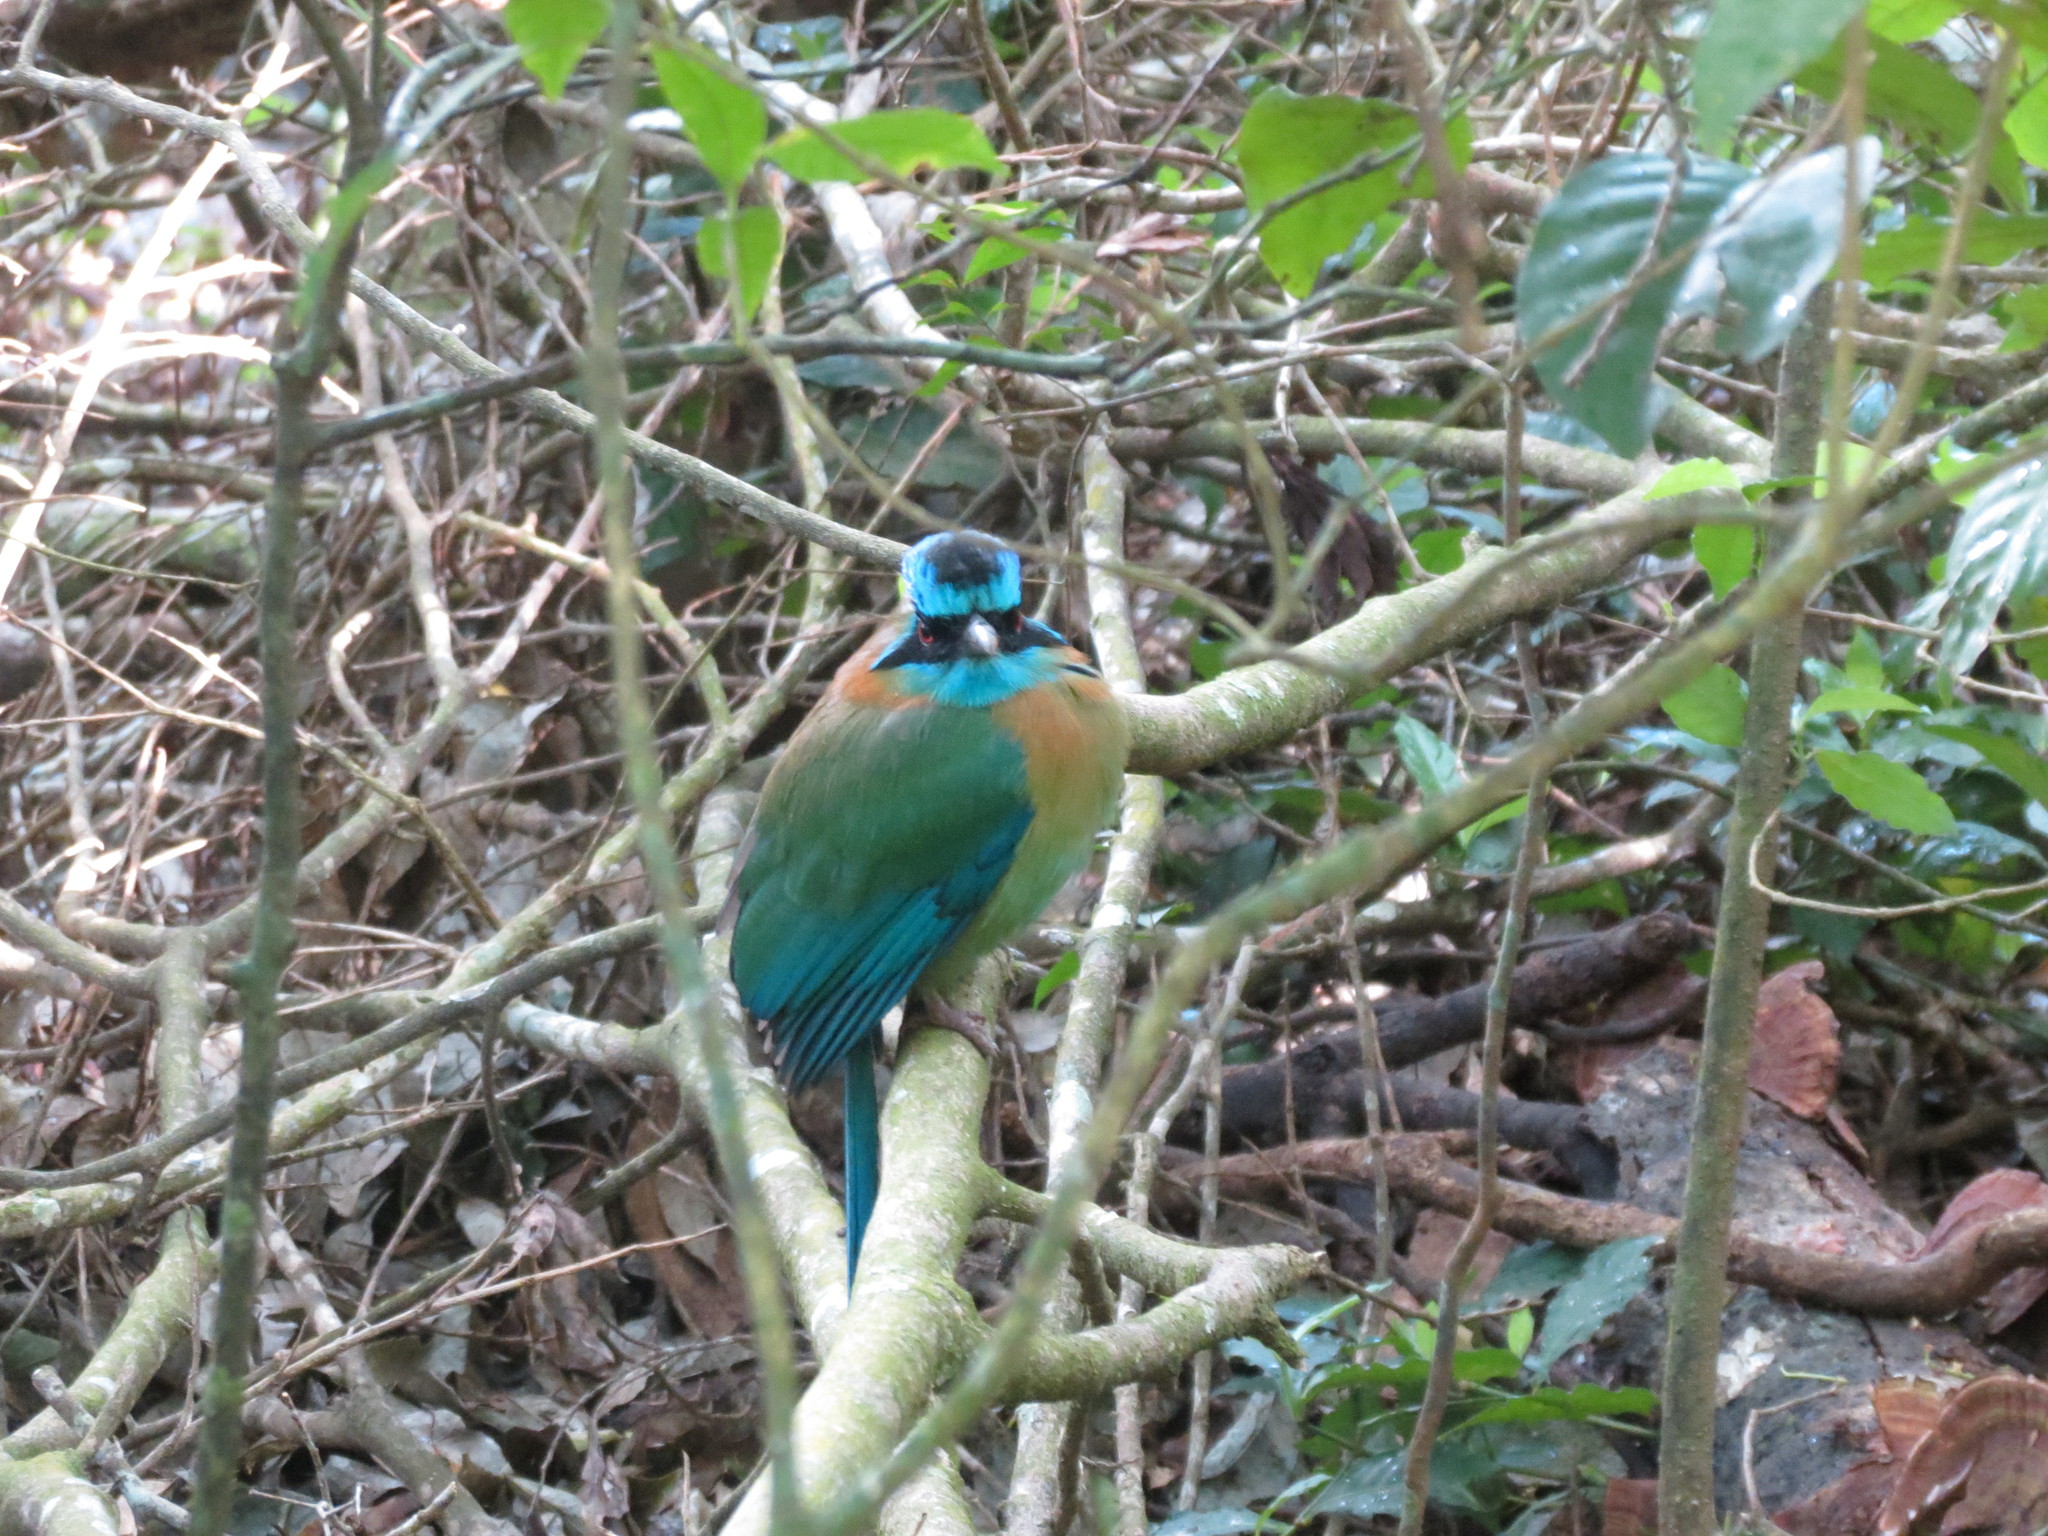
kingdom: Animalia
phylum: Chordata
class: Aves
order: Coraciiformes
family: Momotidae
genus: Momotus
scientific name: Momotus lessonii
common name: Lesson's motmot
